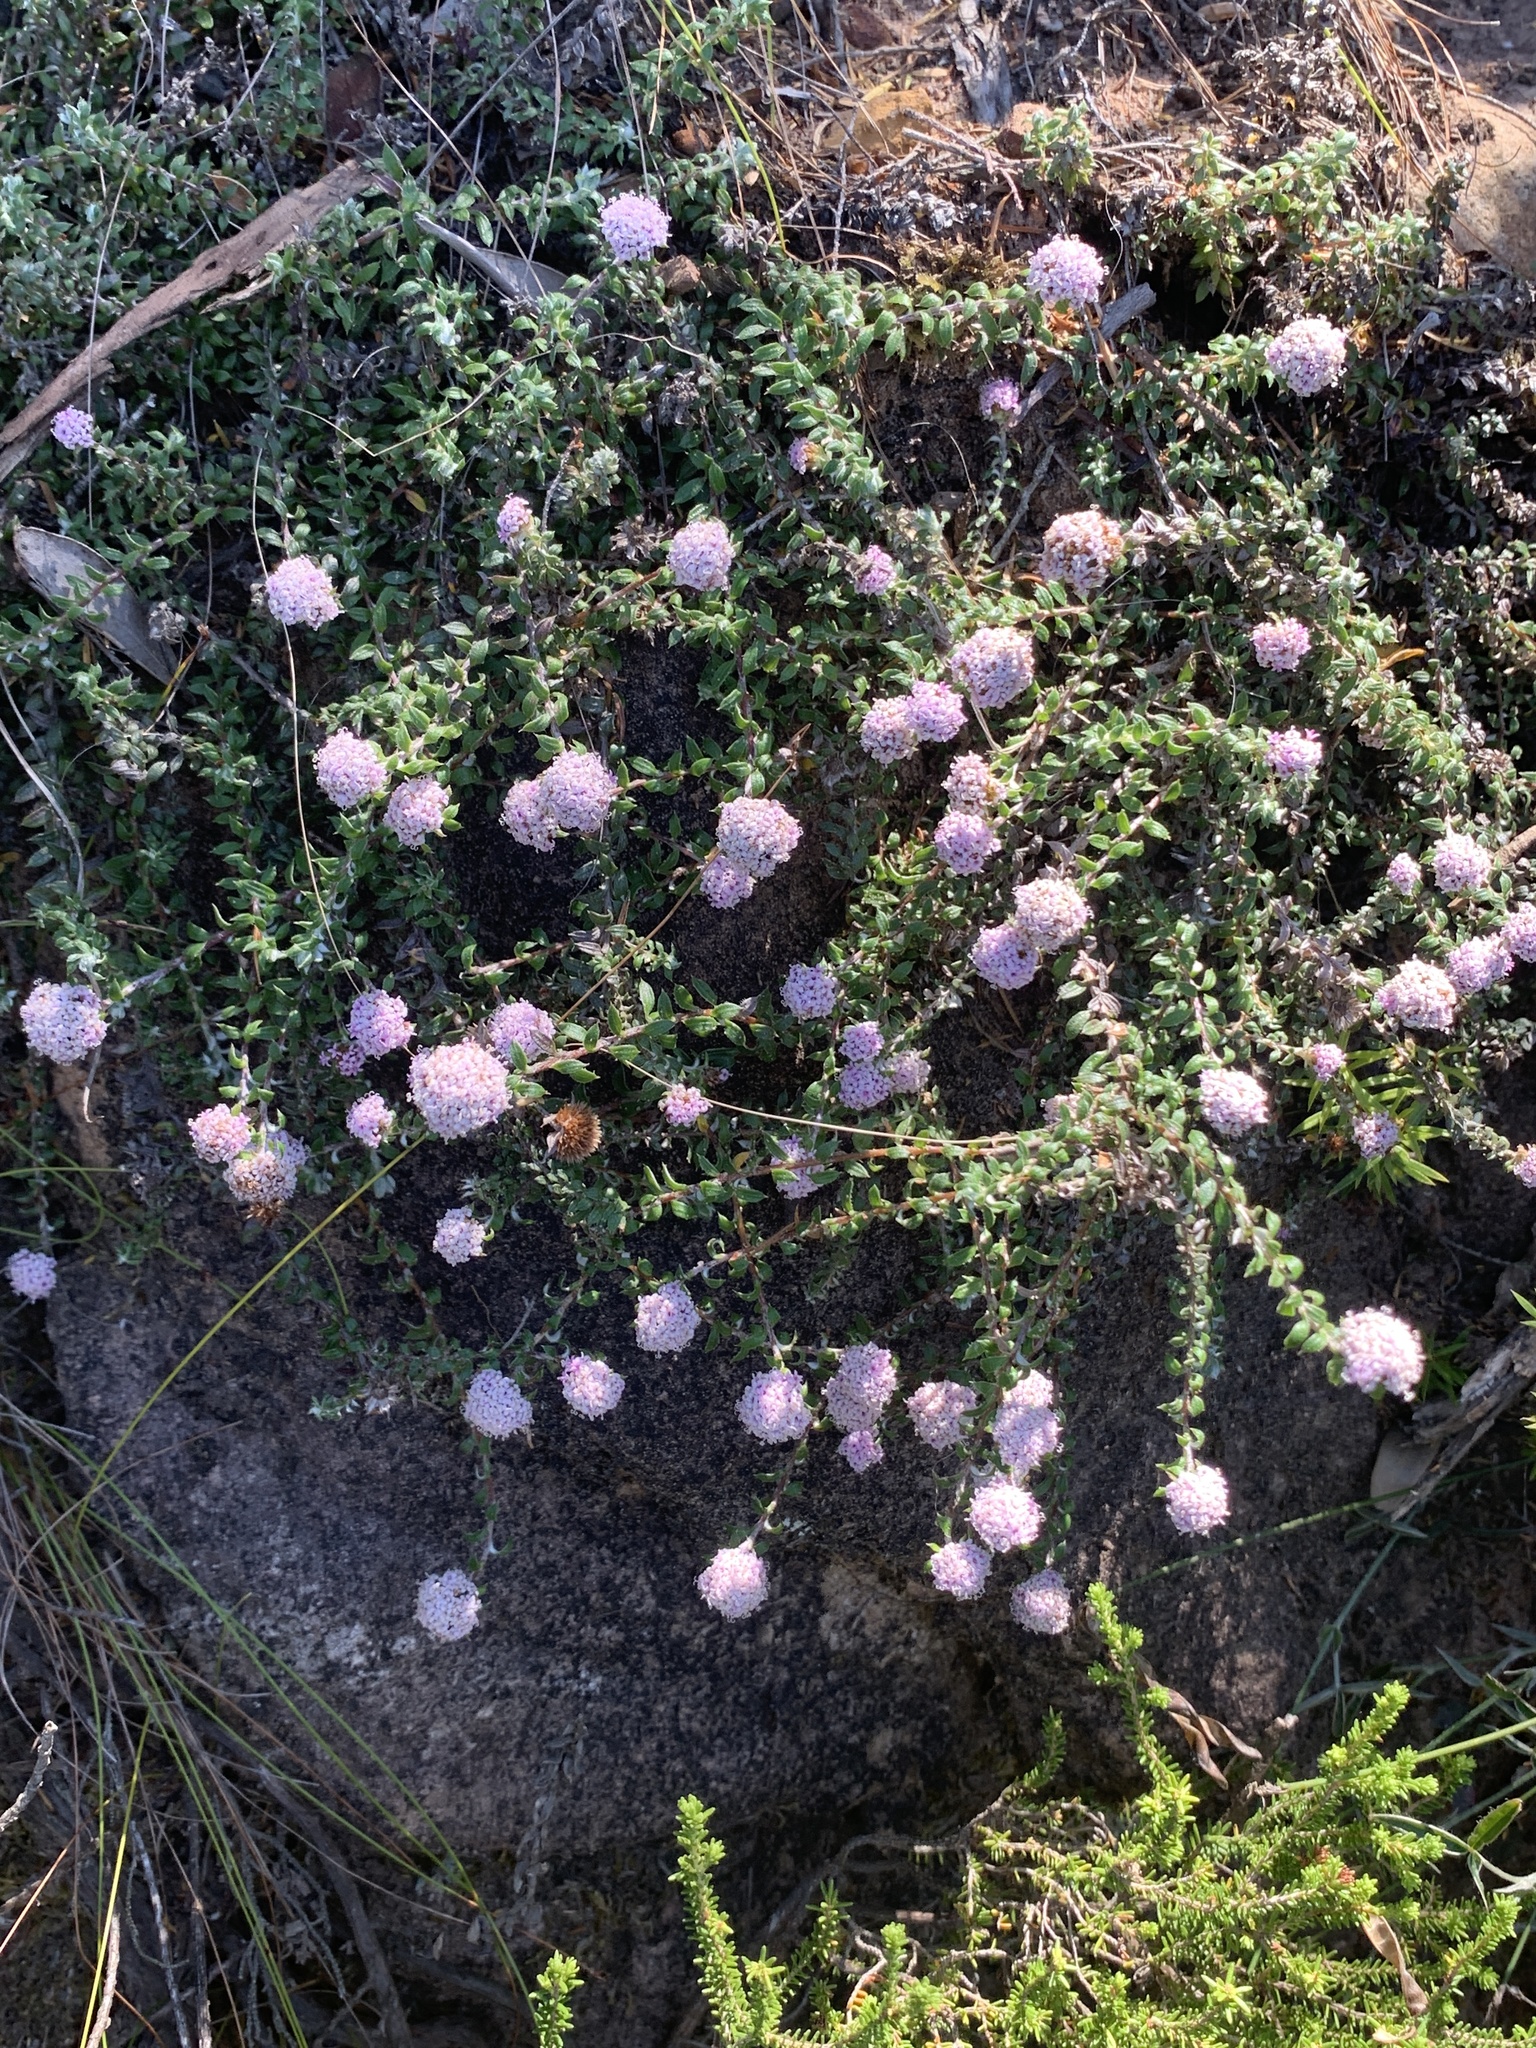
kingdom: Plantae
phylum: Tracheophyta
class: Magnoliopsida
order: Asterales
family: Asteraceae
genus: Stoebe
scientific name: Stoebe prostrata
